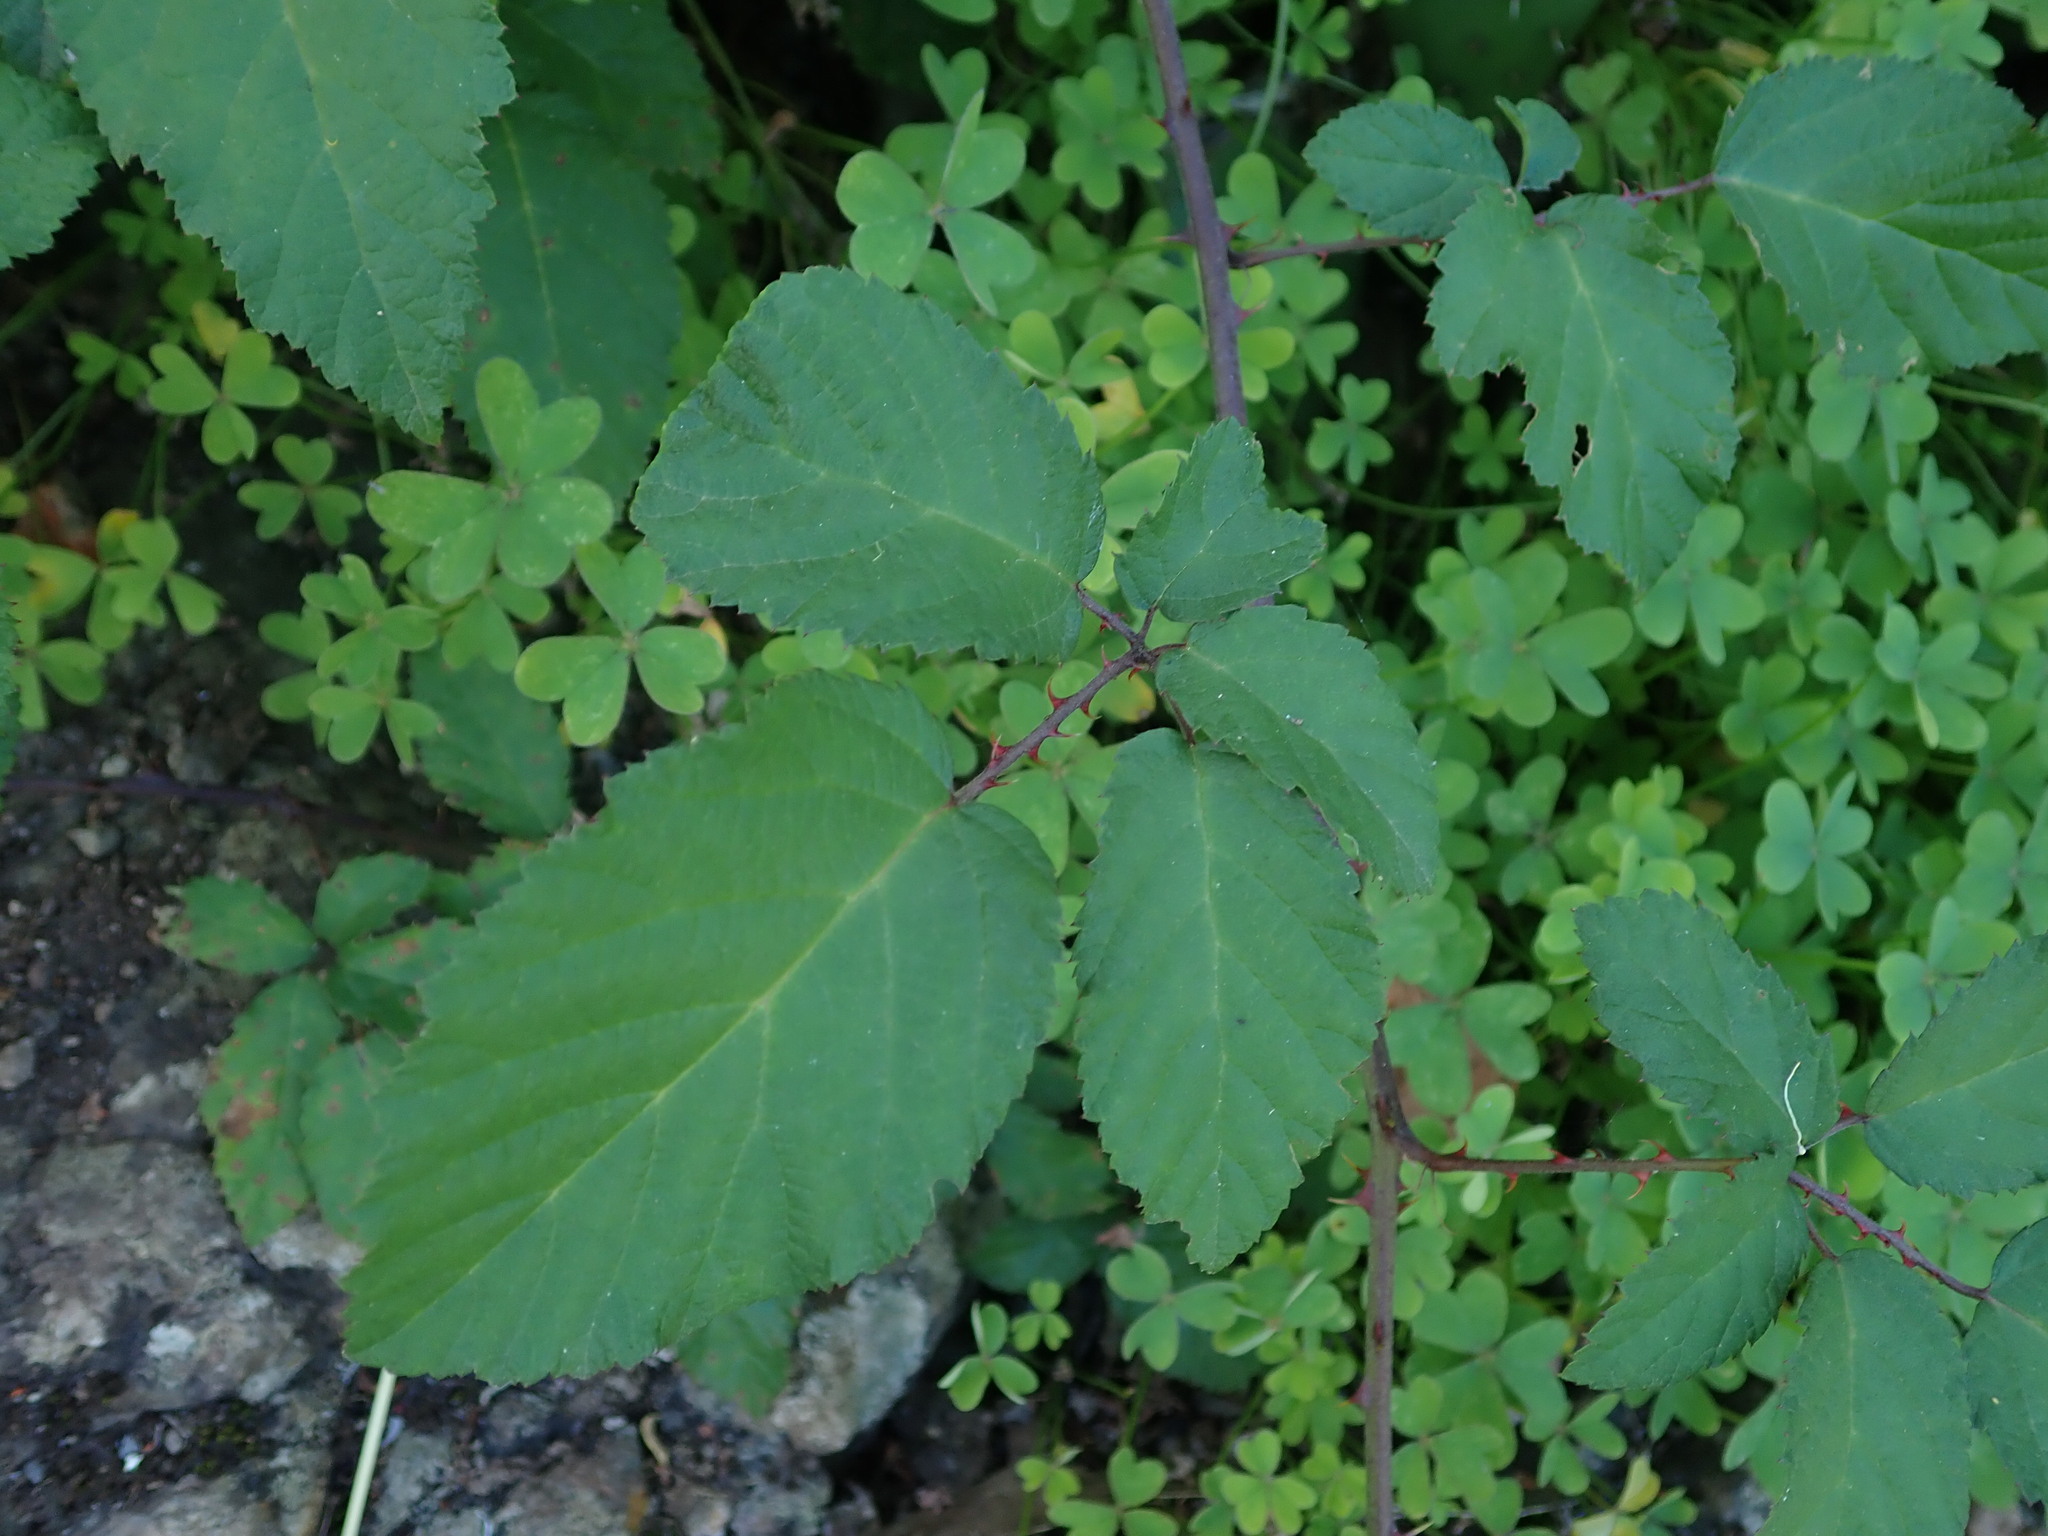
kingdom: Plantae
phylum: Tracheophyta
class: Magnoliopsida
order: Rosales
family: Rosaceae
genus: Rubus
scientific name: Rubus ulmifolius
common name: Elmleaf blackberry
